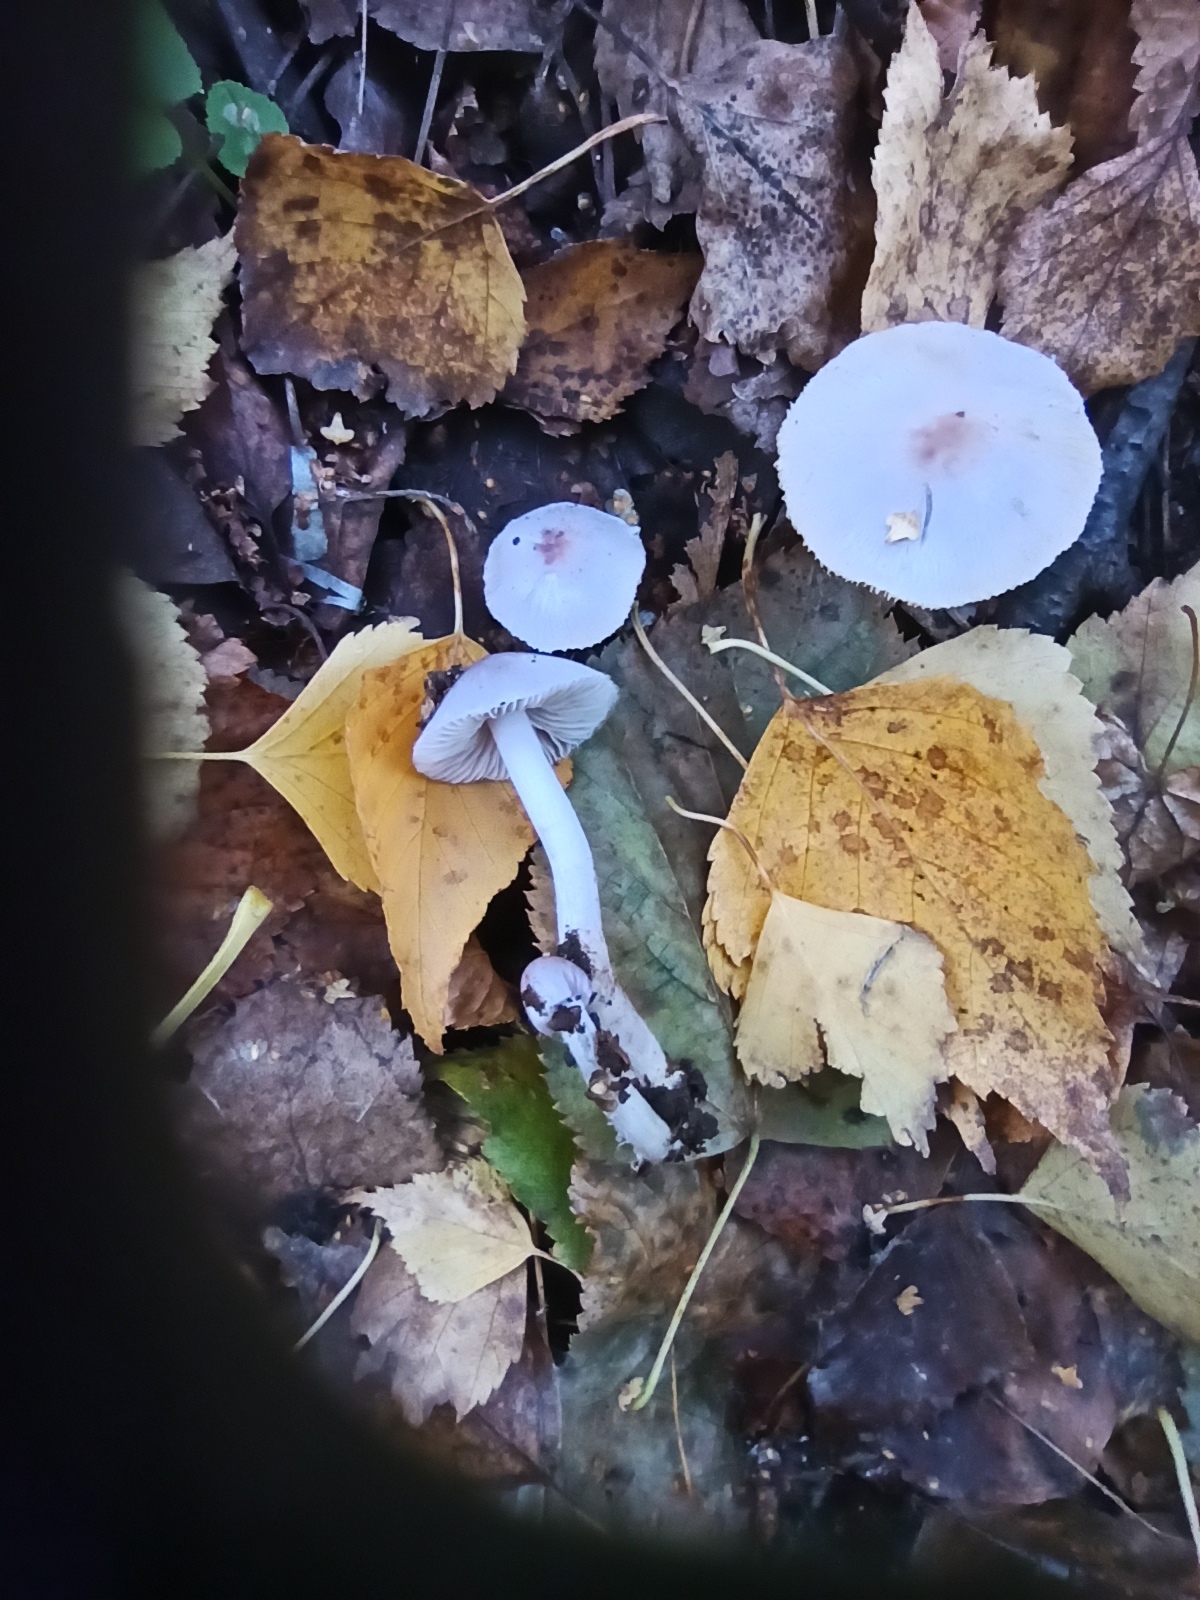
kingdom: Fungi
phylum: Basidiomycota
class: Agaricomycetes
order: Agaricales
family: Mycenaceae
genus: Mycena
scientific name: Mycena pura
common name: Lilac bonnet
